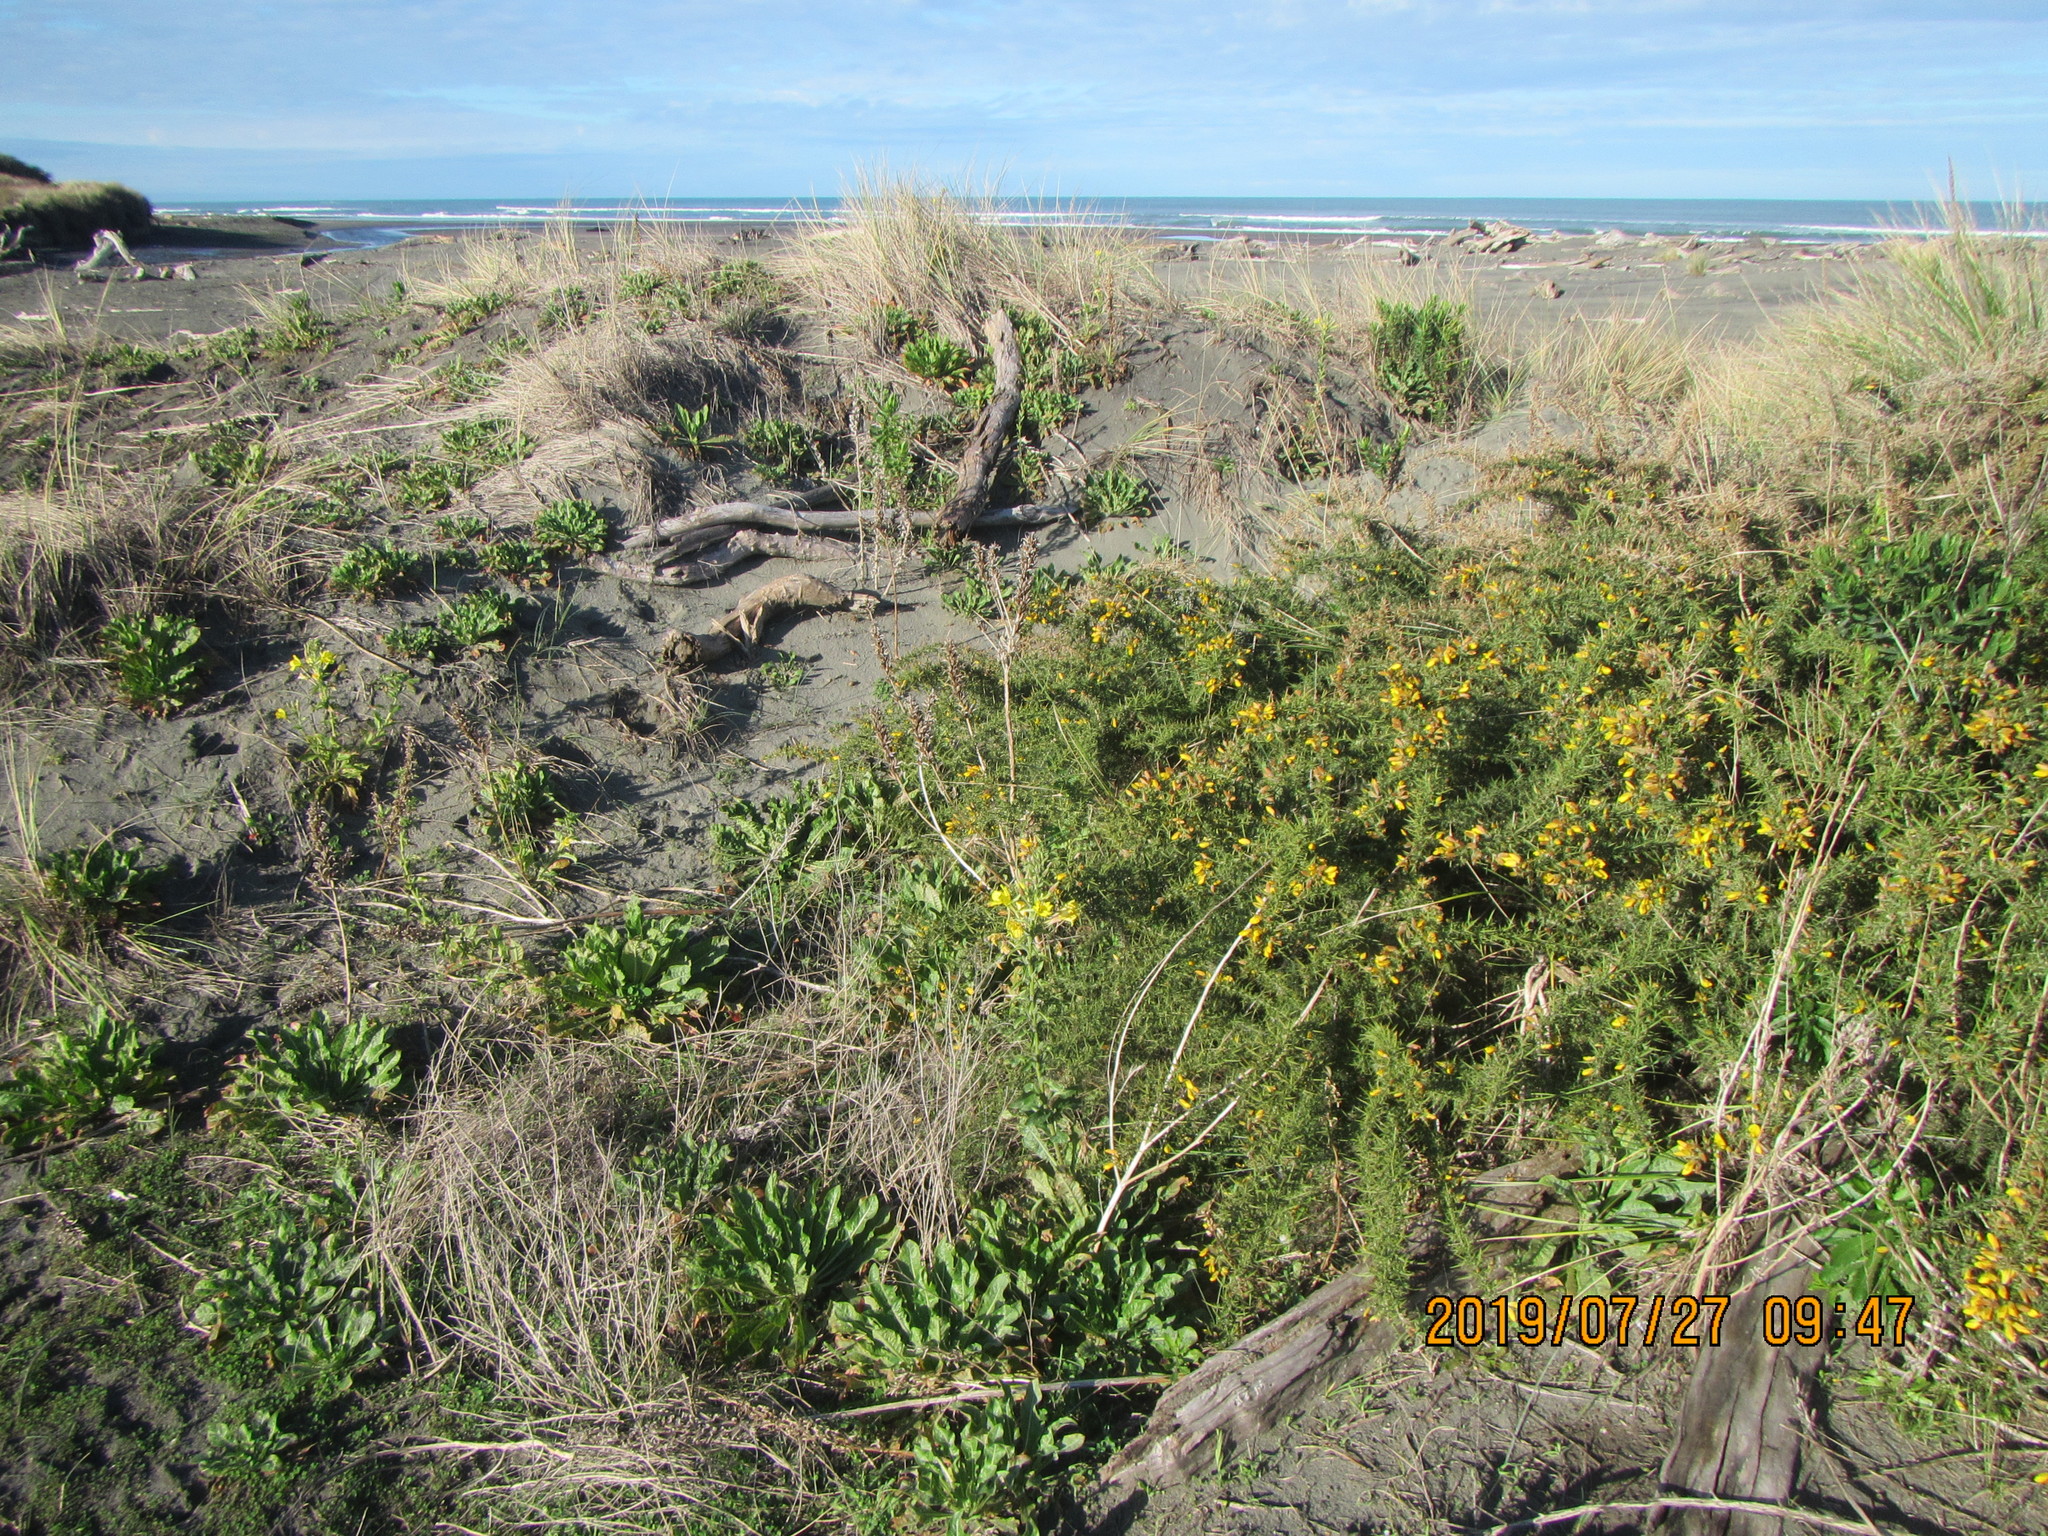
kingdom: Plantae
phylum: Tracheophyta
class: Magnoliopsida
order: Myrtales
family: Onagraceae
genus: Oenothera
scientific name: Oenothera glazioviana
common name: Large-flowered evening-primrose
